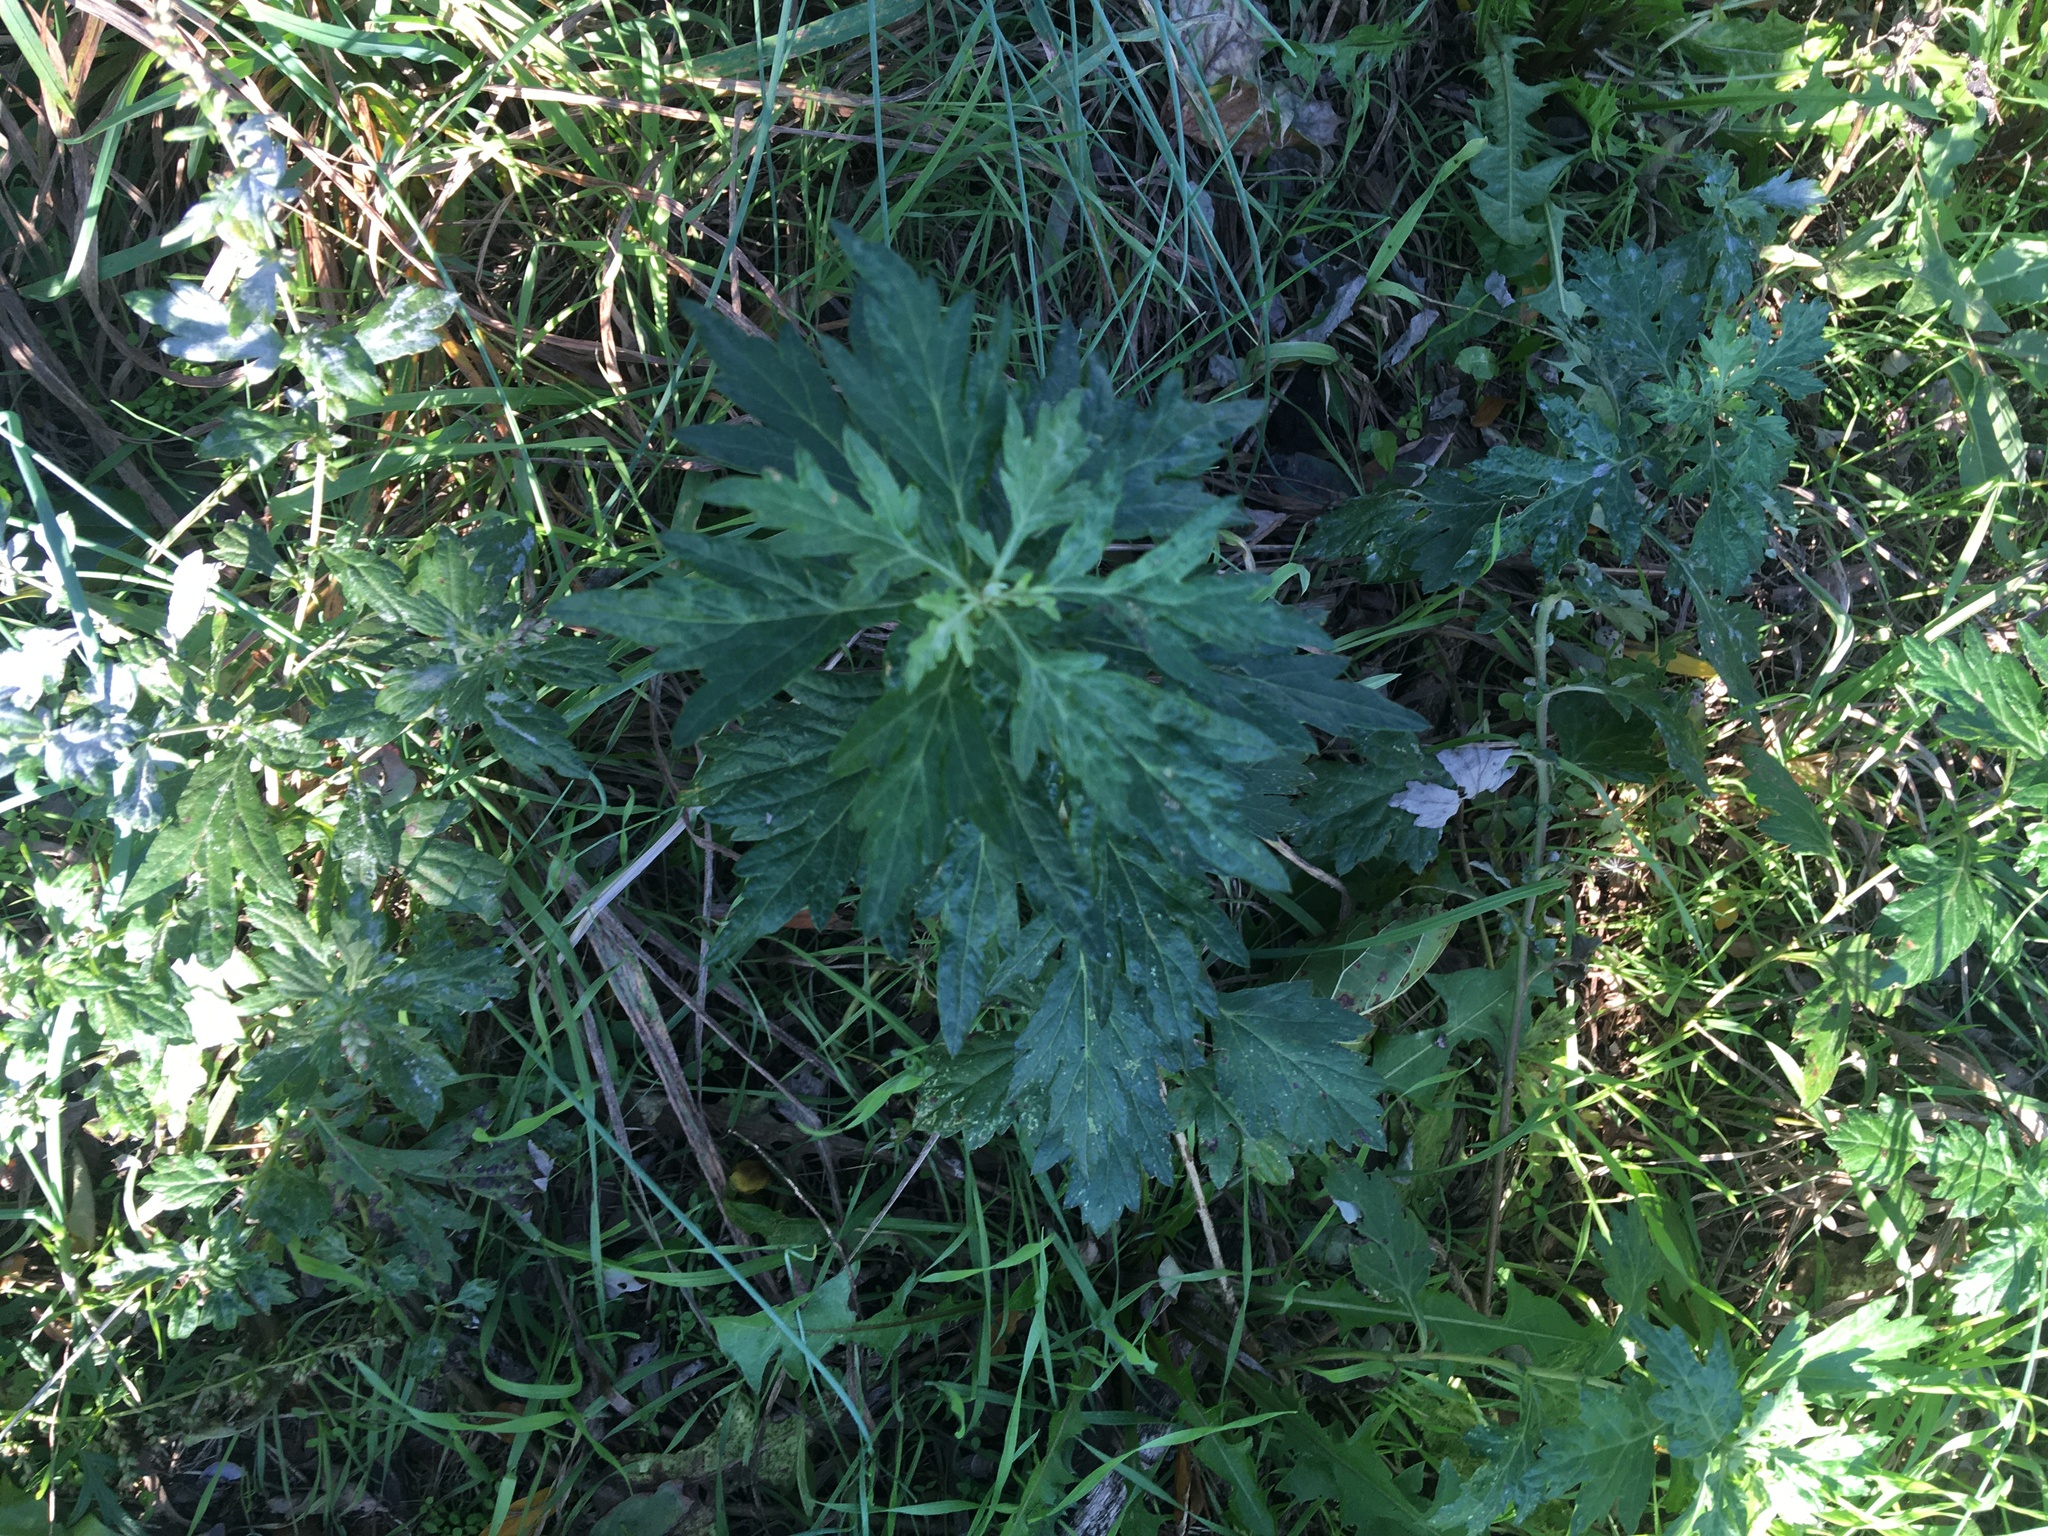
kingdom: Plantae
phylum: Tracheophyta
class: Magnoliopsida
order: Asterales
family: Asteraceae
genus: Artemisia
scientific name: Artemisia vulgaris
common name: Mugwort
